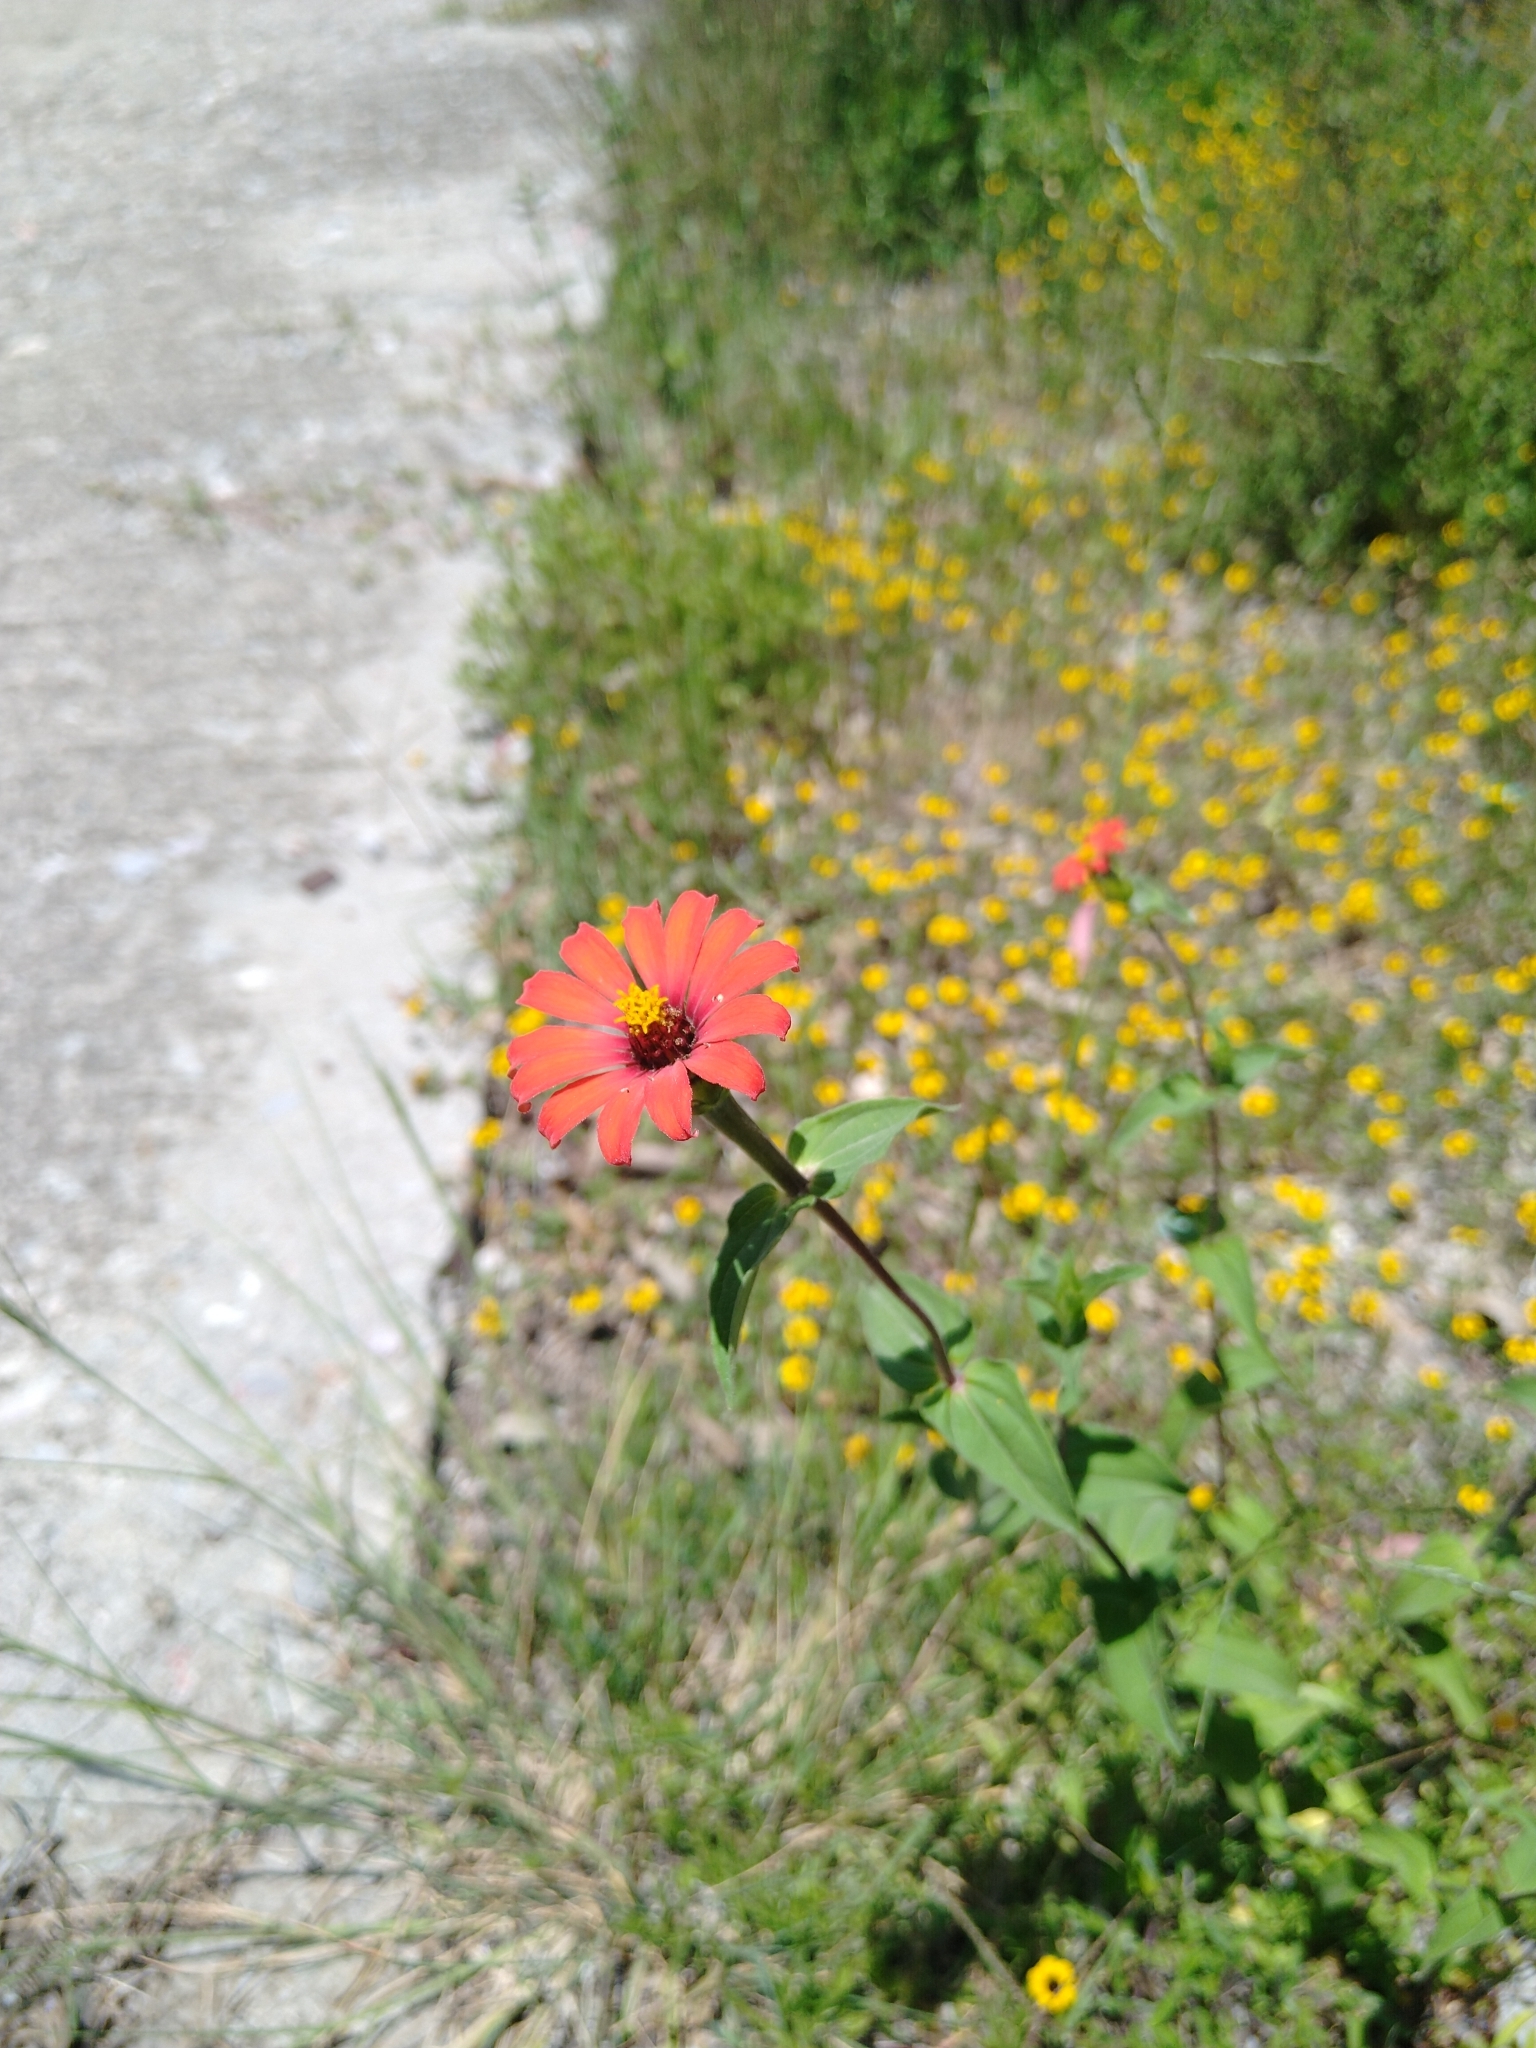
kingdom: Plantae
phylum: Tracheophyta
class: Magnoliopsida
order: Asterales
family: Asteraceae
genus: Zinnia
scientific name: Zinnia peruviana
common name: Peruvian zinnia
